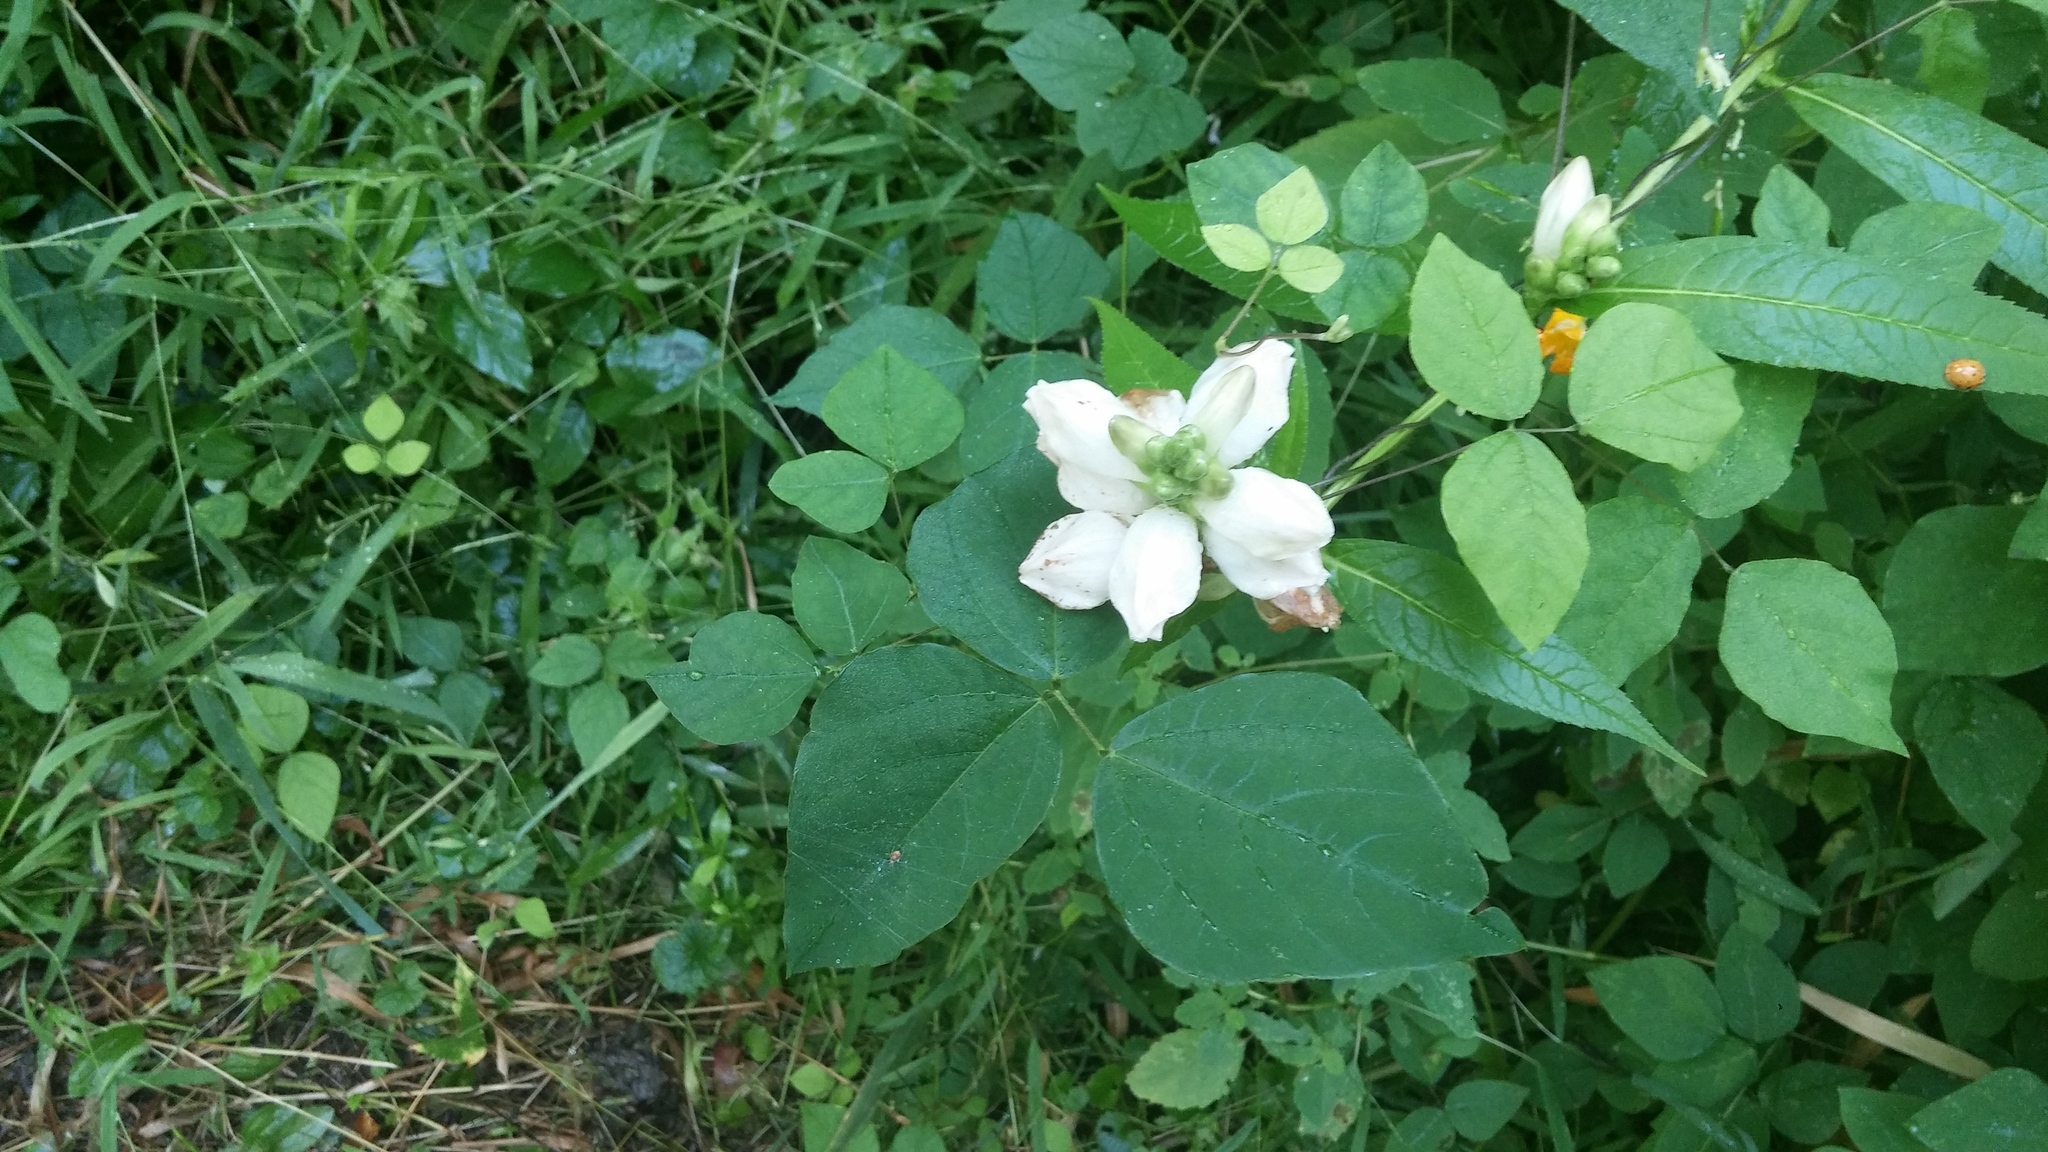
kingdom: Plantae
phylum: Tracheophyta
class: Magnoliopsida
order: Lamiales
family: Plantaginaceae
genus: Chelone
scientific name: Chelone glabra
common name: Snakehead
